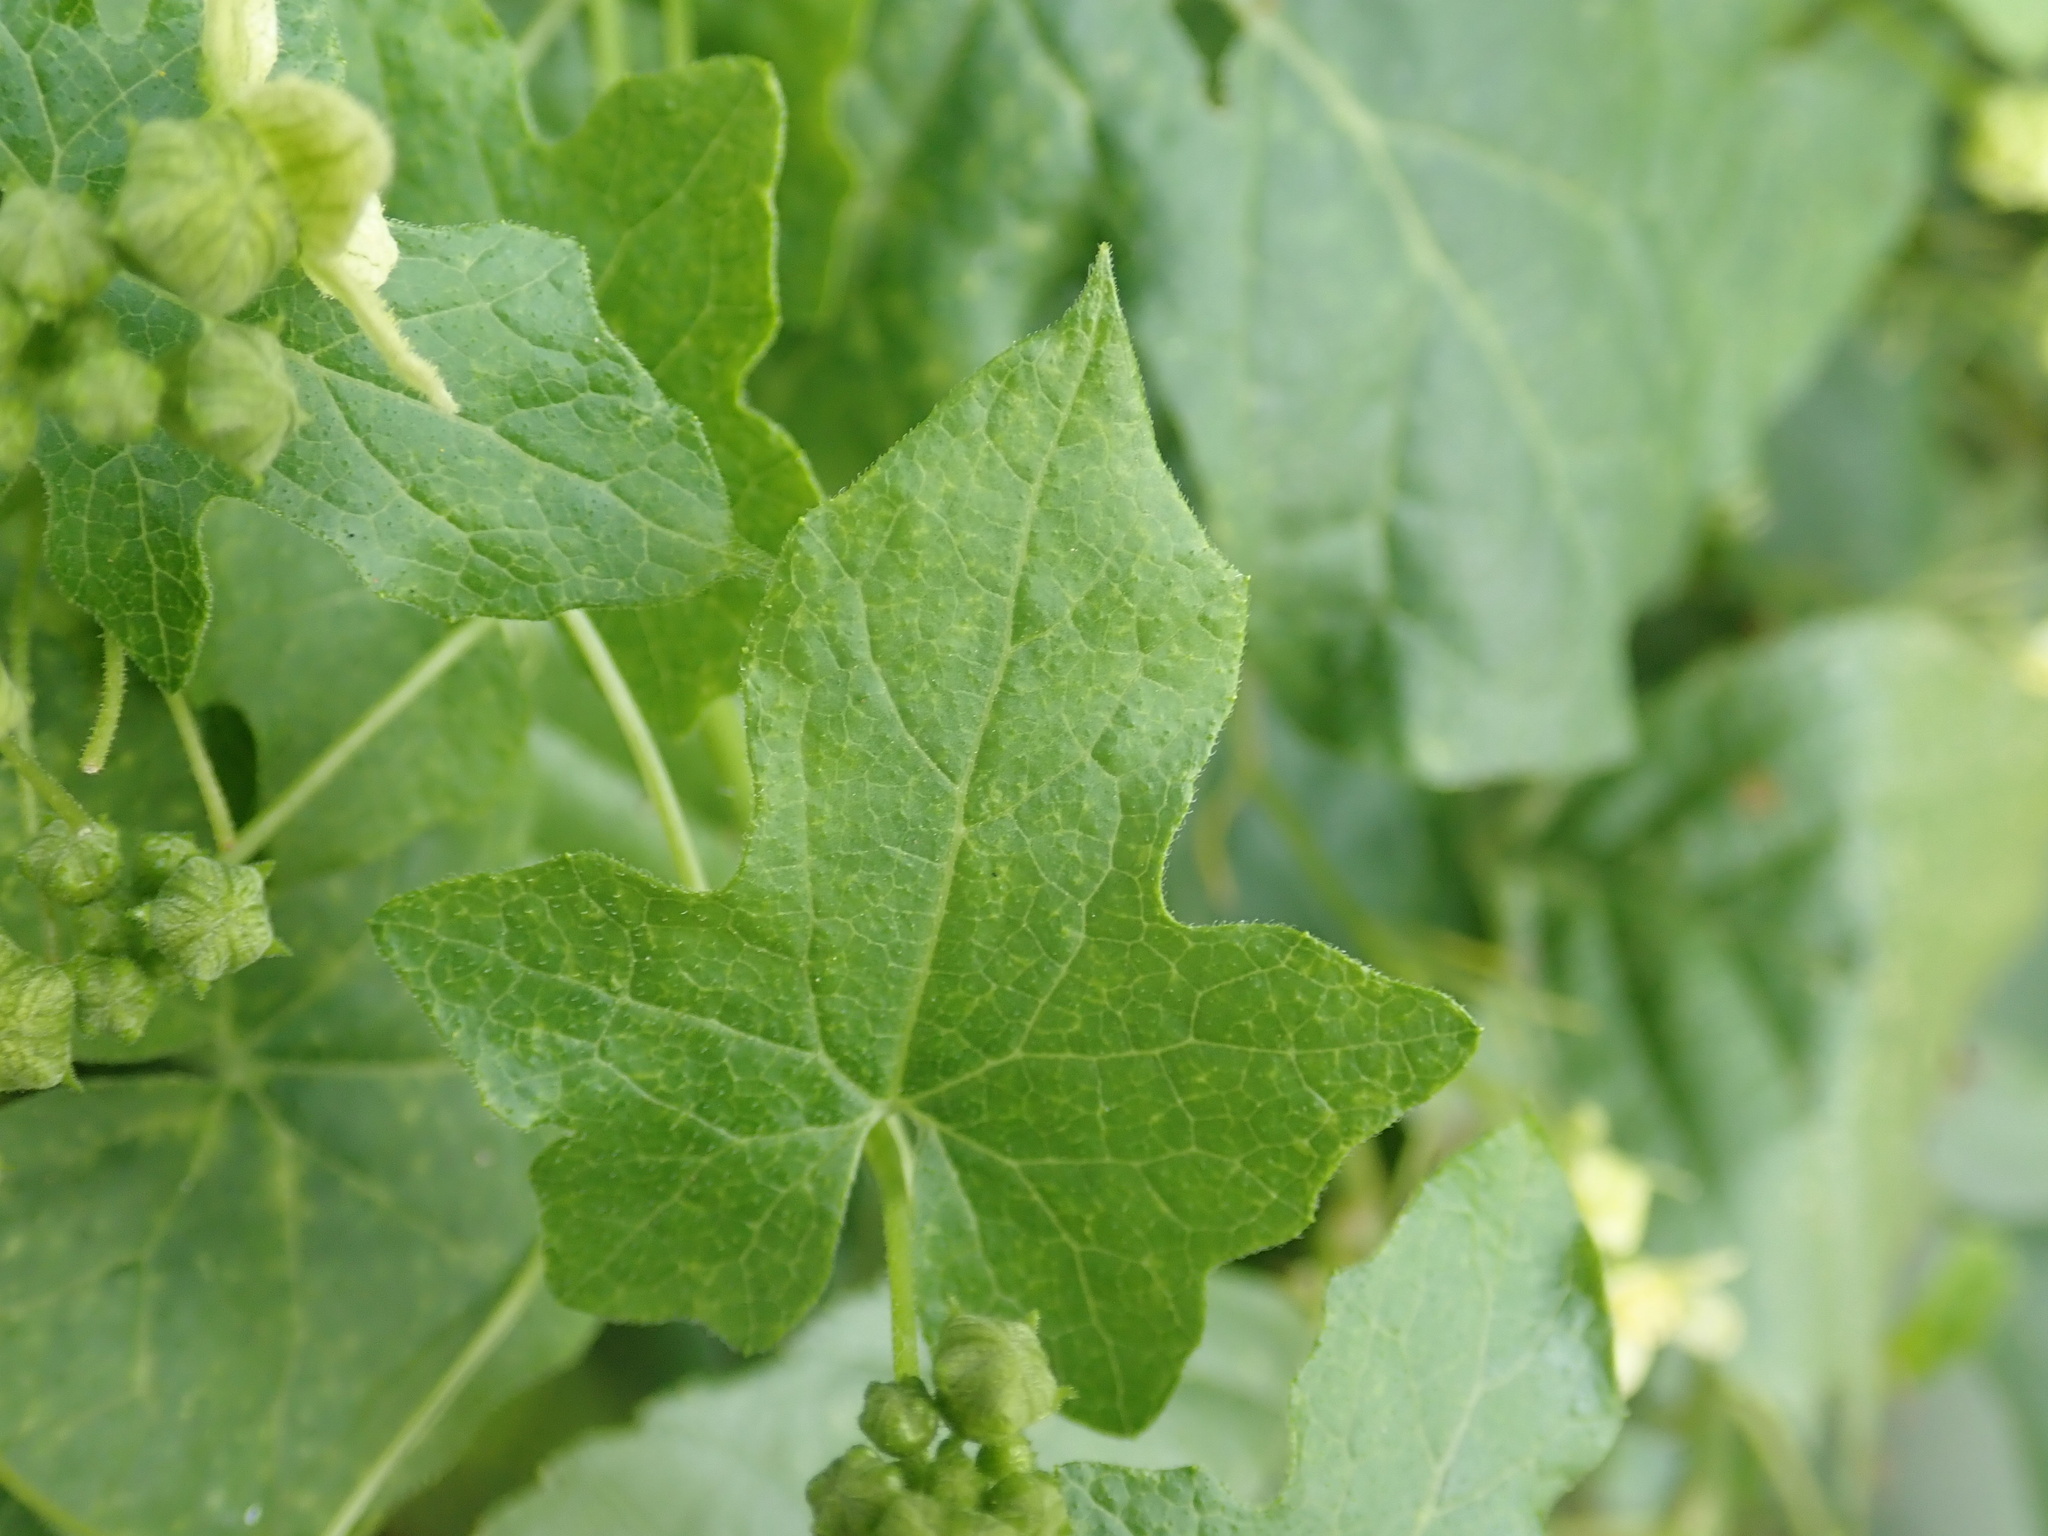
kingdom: Plantae
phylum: Tracheophyta
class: Magnoliopsida
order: Cucurbitales
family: Cucurbitaceae
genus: Bryonia
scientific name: Bryonia cretica
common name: Cretan bryony
